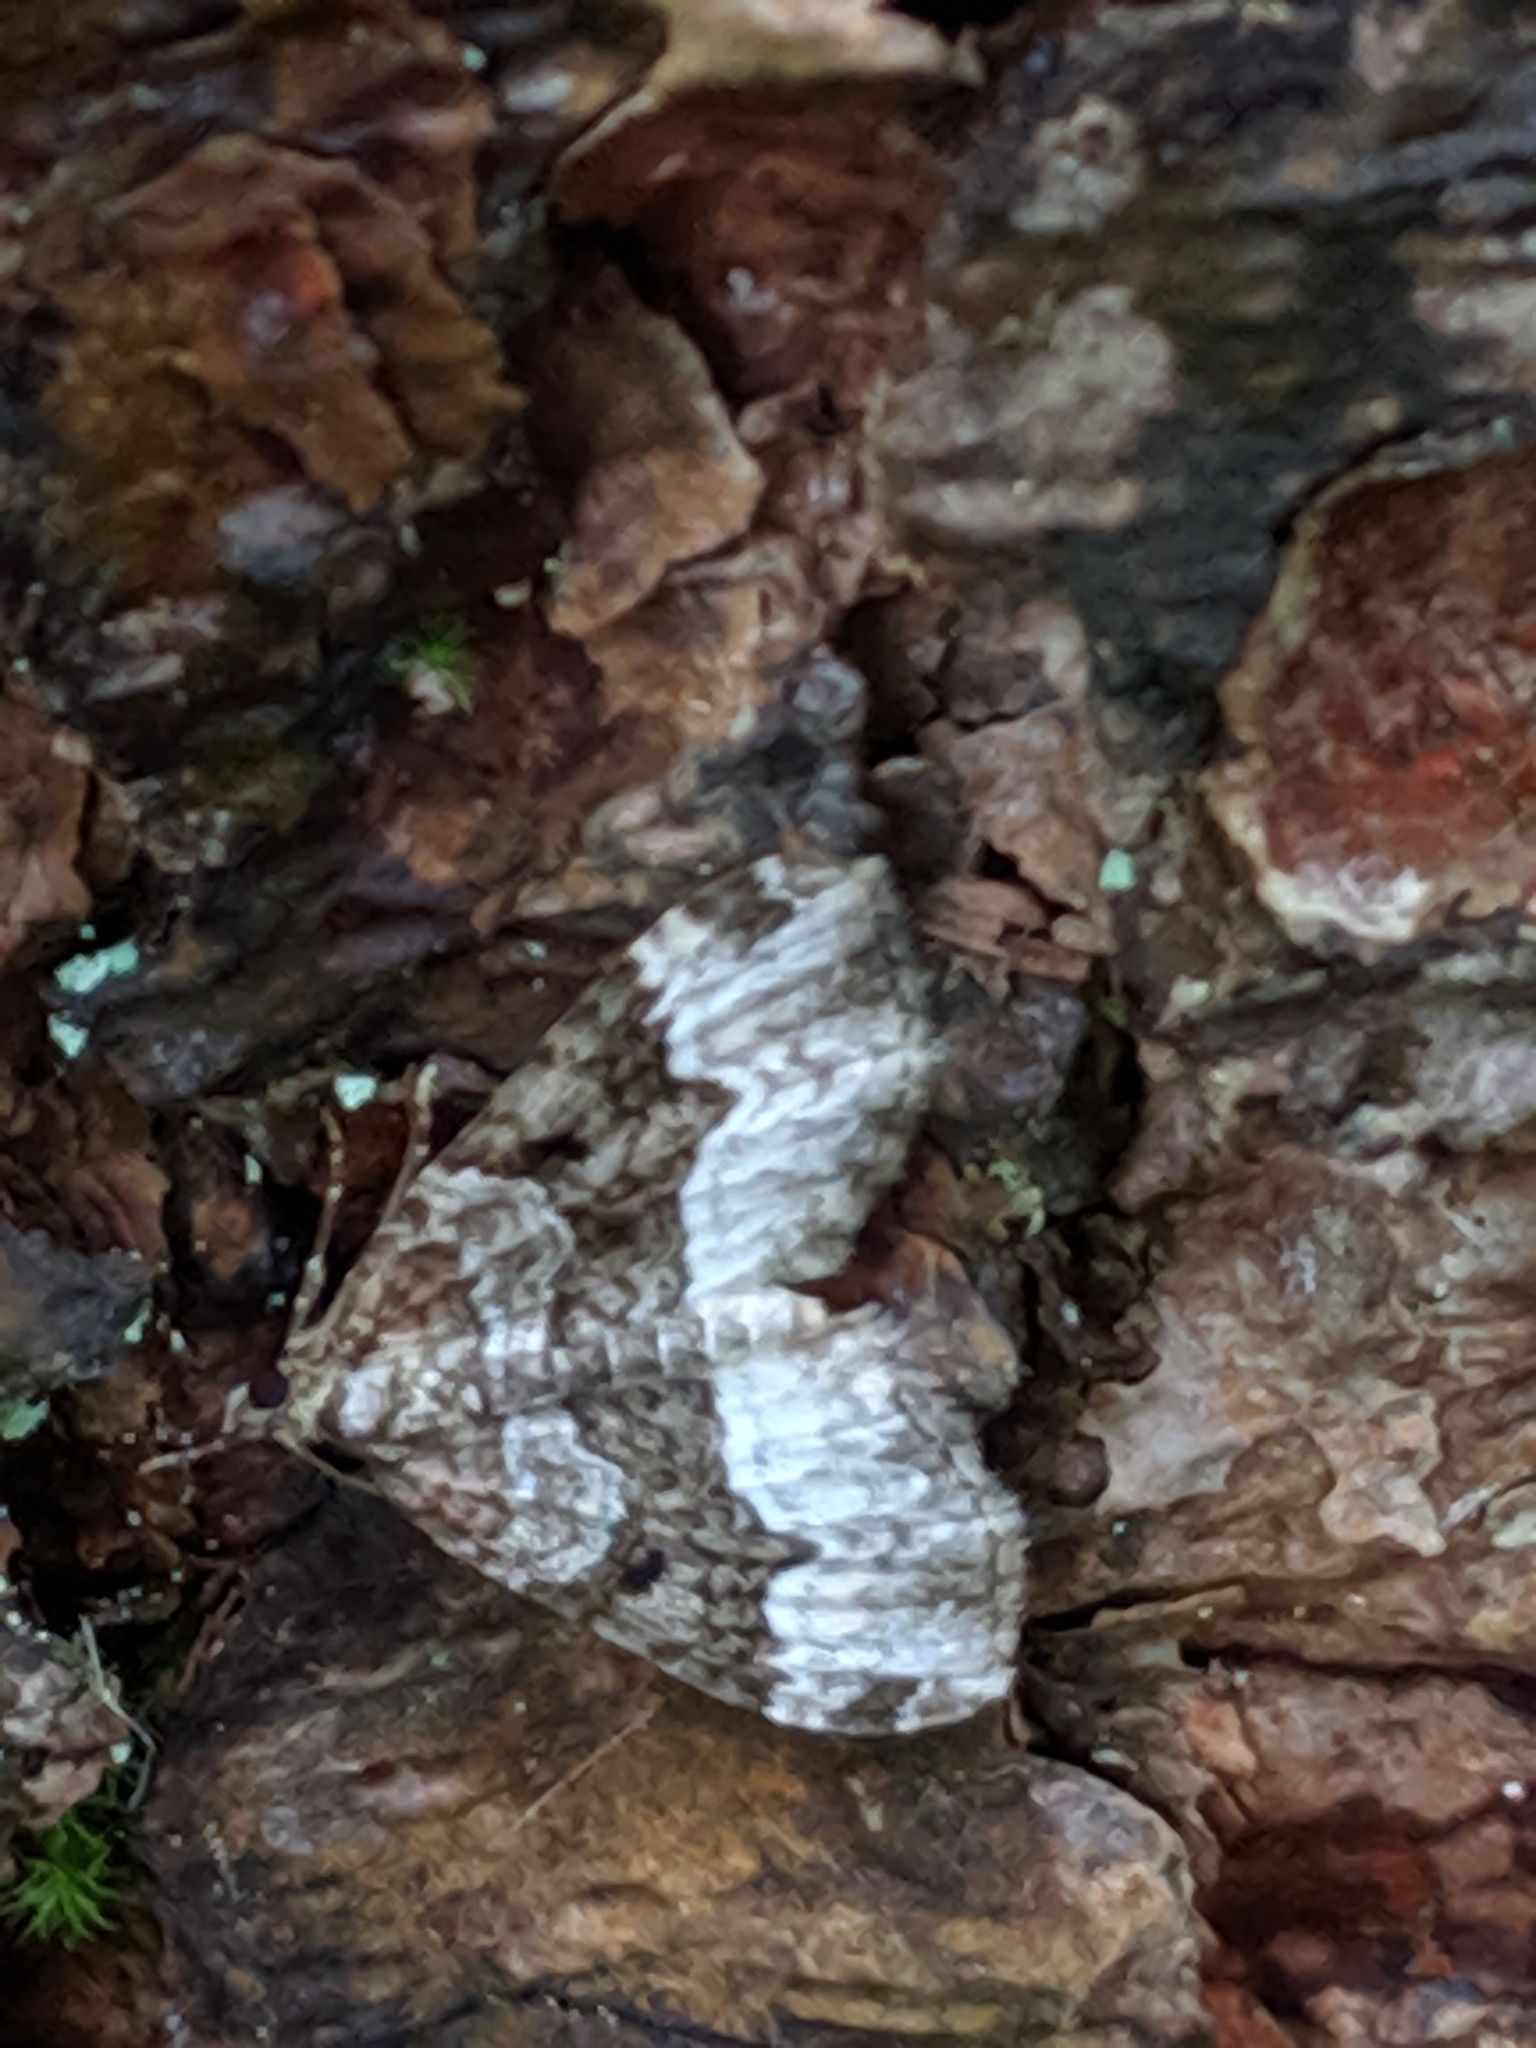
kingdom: Animalia
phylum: Arthropoda
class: Insecta
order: Lepidoptera
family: Geometridae
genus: Euphyia
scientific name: Euphyia intermediata
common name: Sharp-angled carpet
